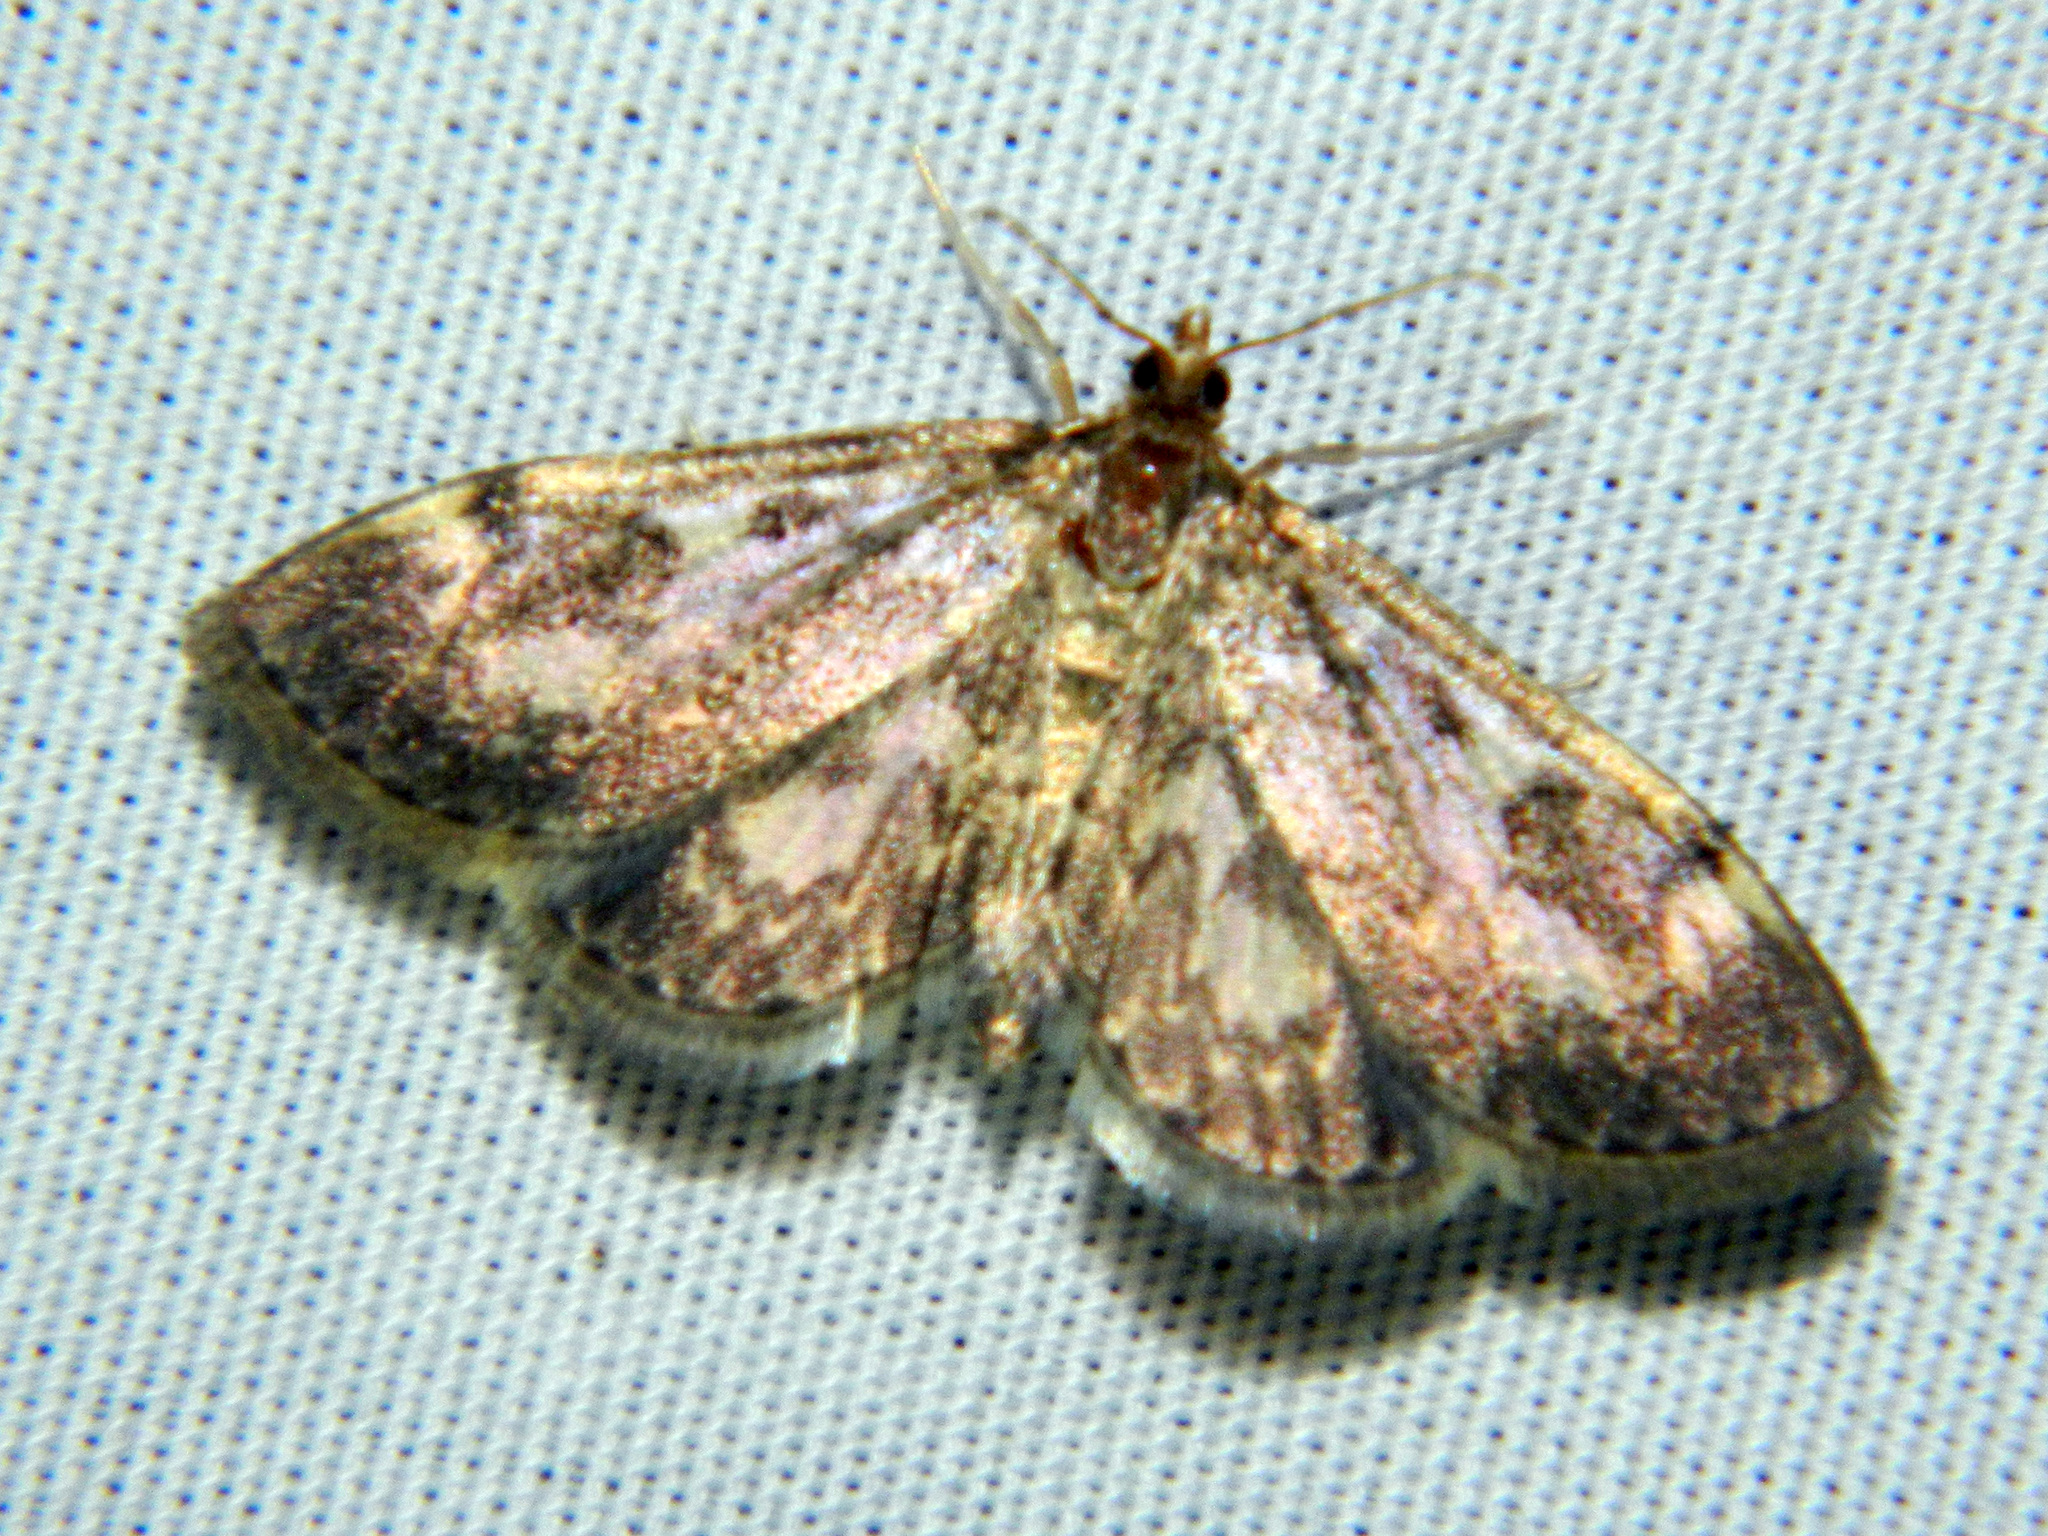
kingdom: Animalia
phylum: Arthropoda
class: Insecta
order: Lepidoptera
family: Crambidae
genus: Anania
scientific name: Anania
